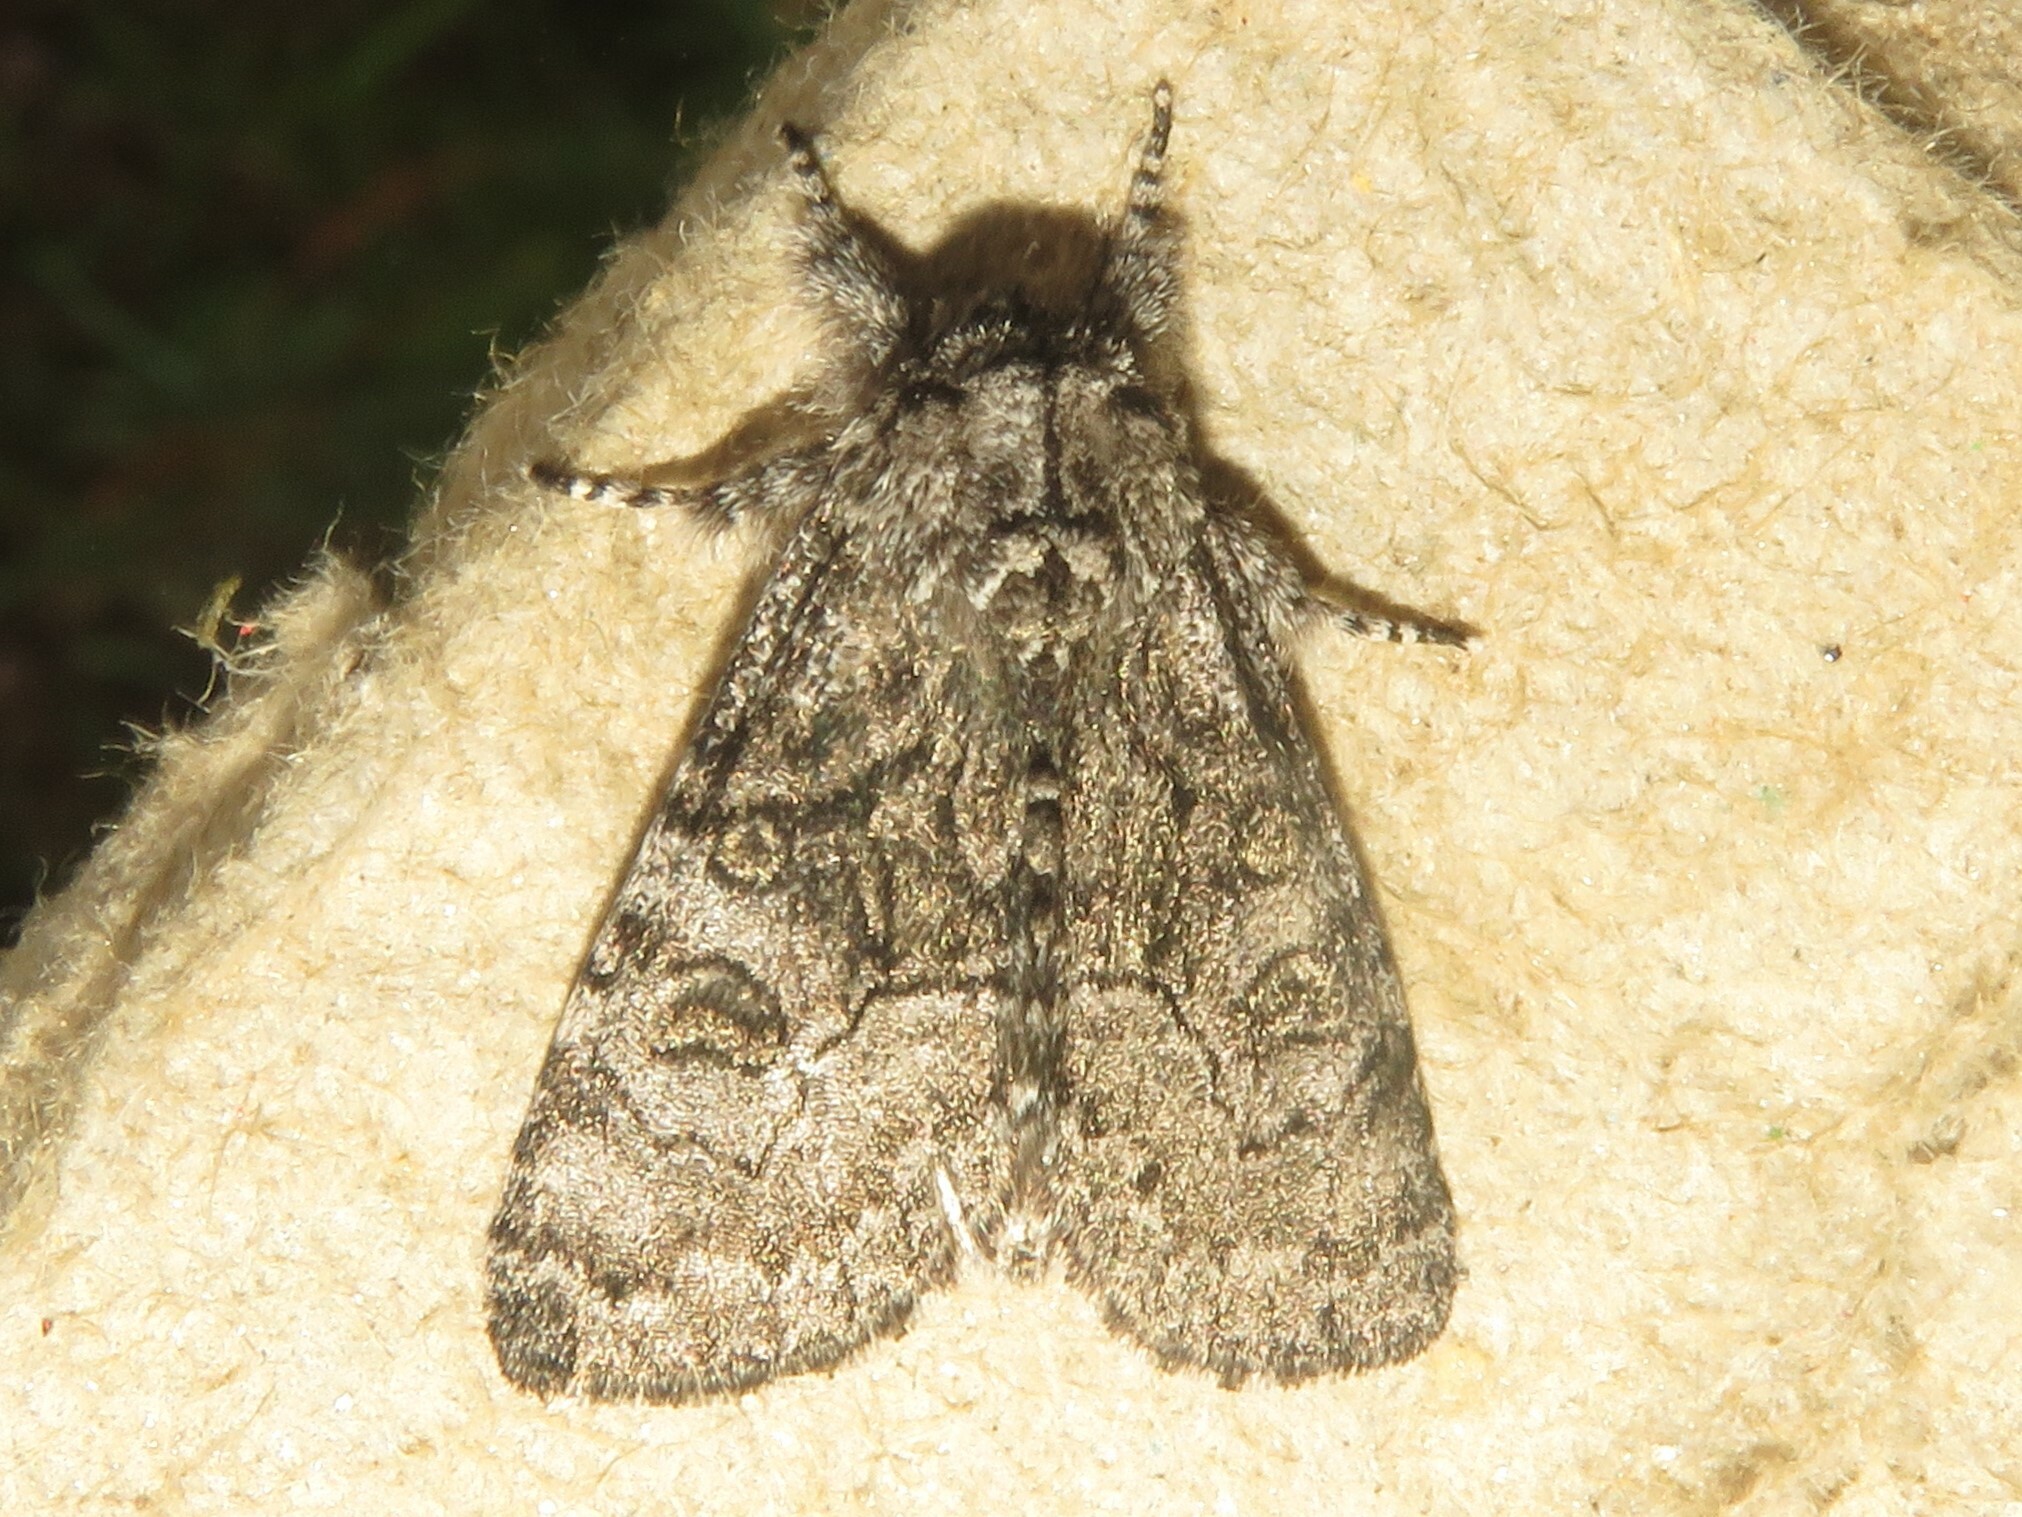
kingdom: Animalia
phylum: Arthropoda
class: Insecta
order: Lepidoptera
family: Noctuidae
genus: Raphia
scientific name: Raphia frater
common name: Brother
